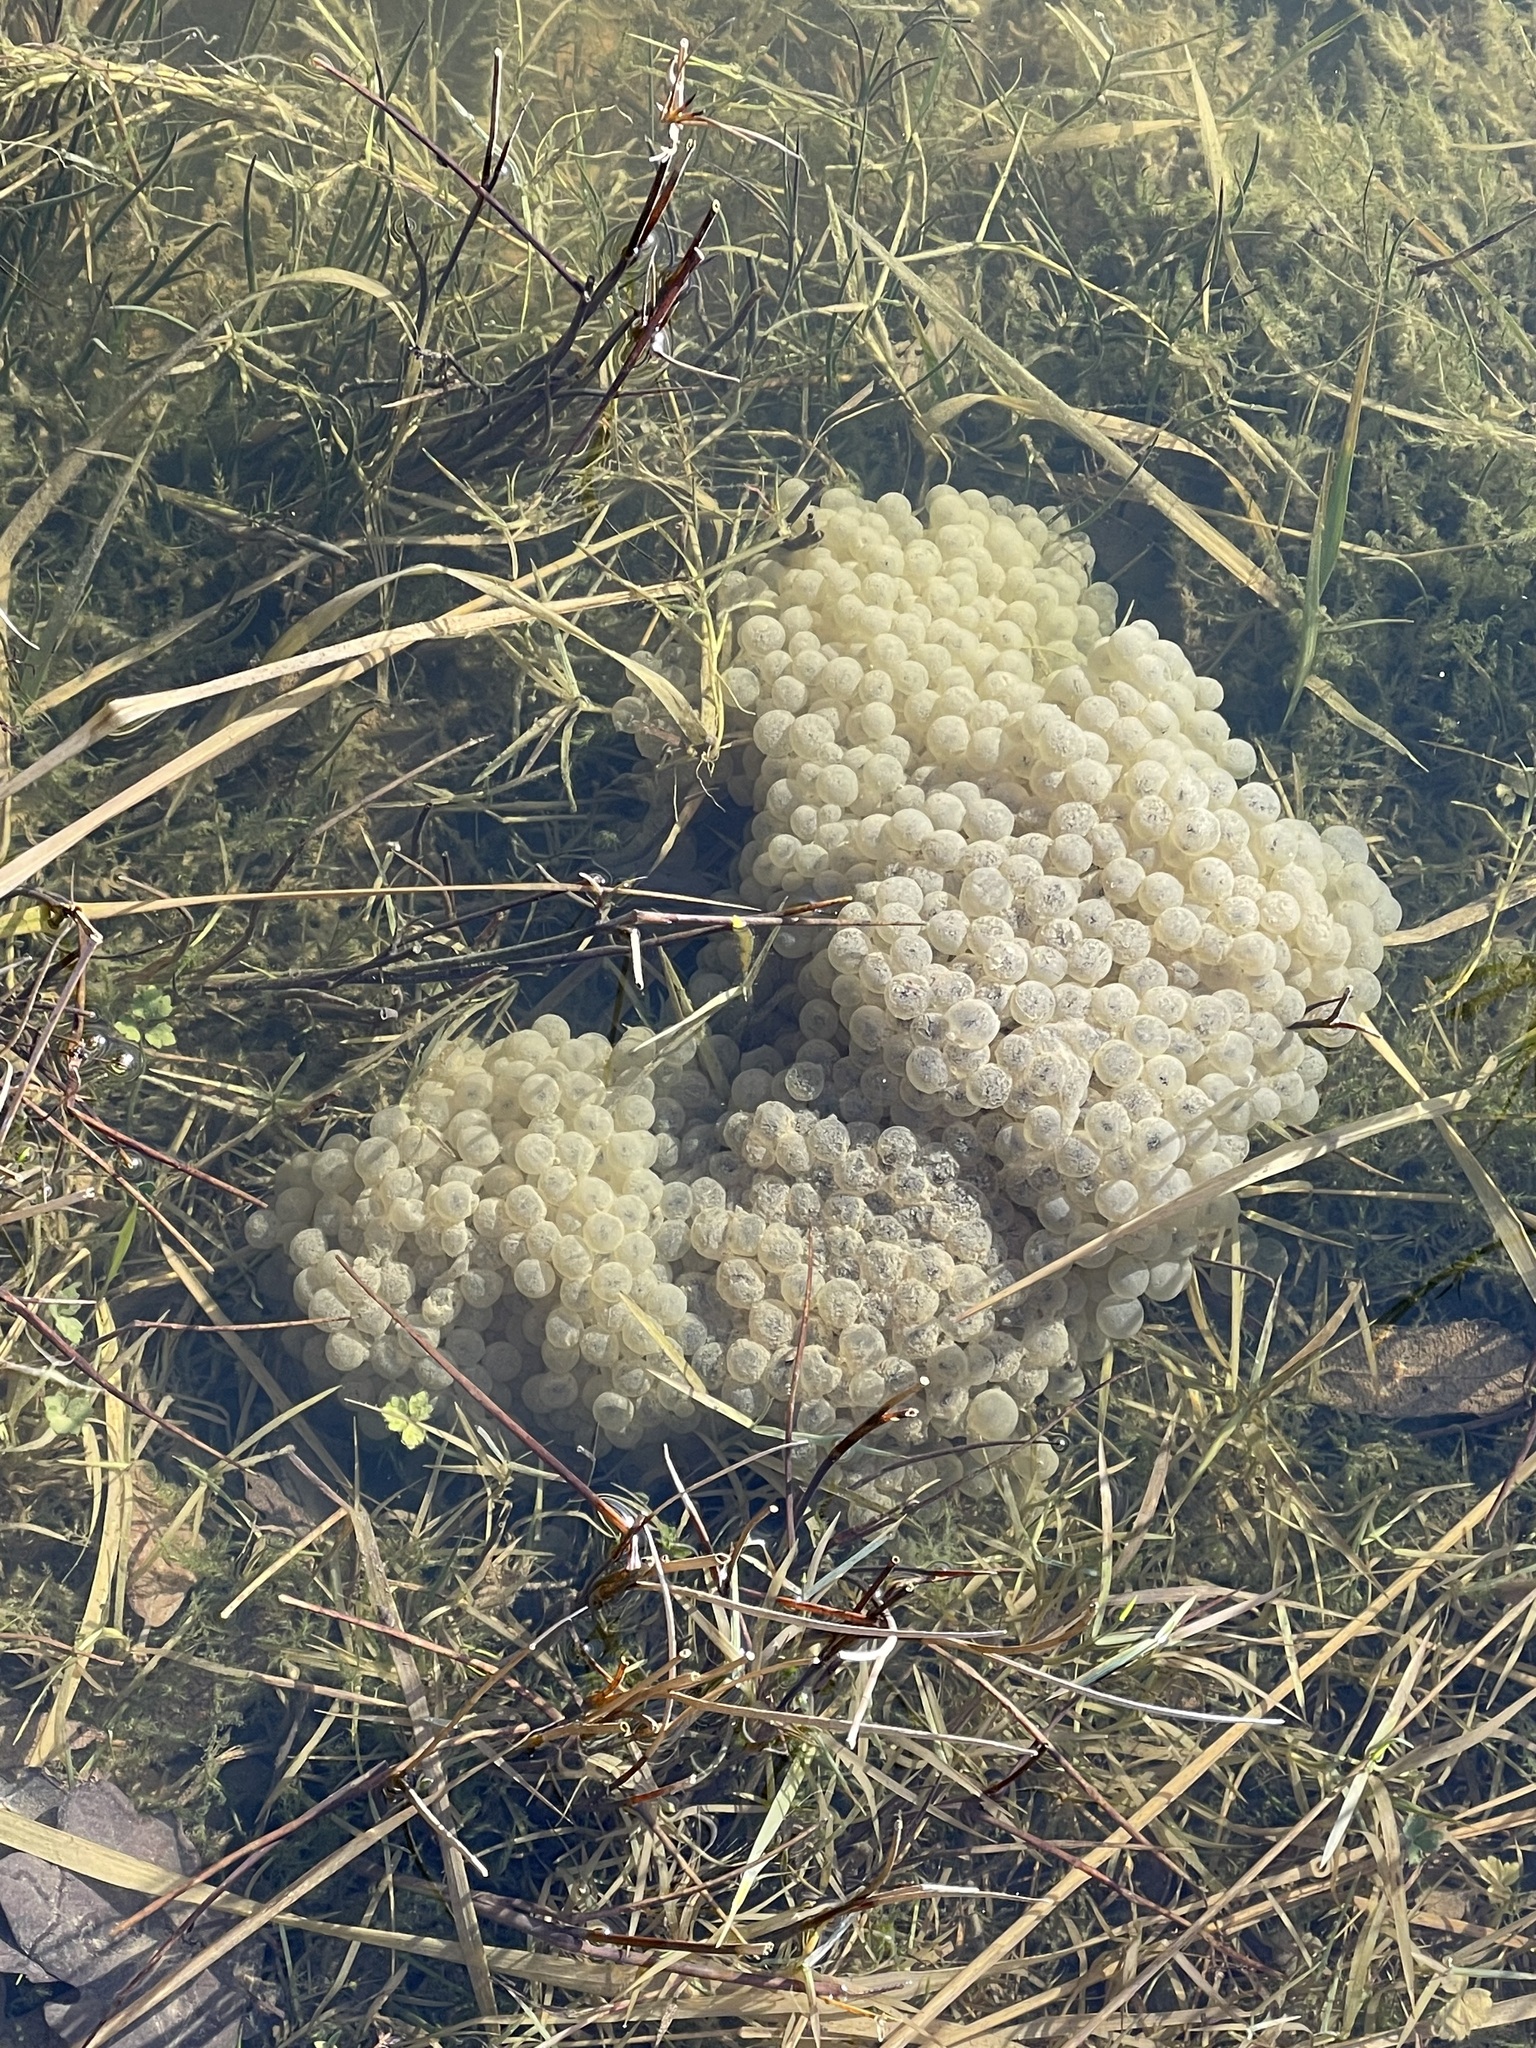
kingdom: Animalia
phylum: Chordata
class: Amphibia
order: Anura
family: Ranidae
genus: Rana
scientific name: Rana temporaria
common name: Common frog
